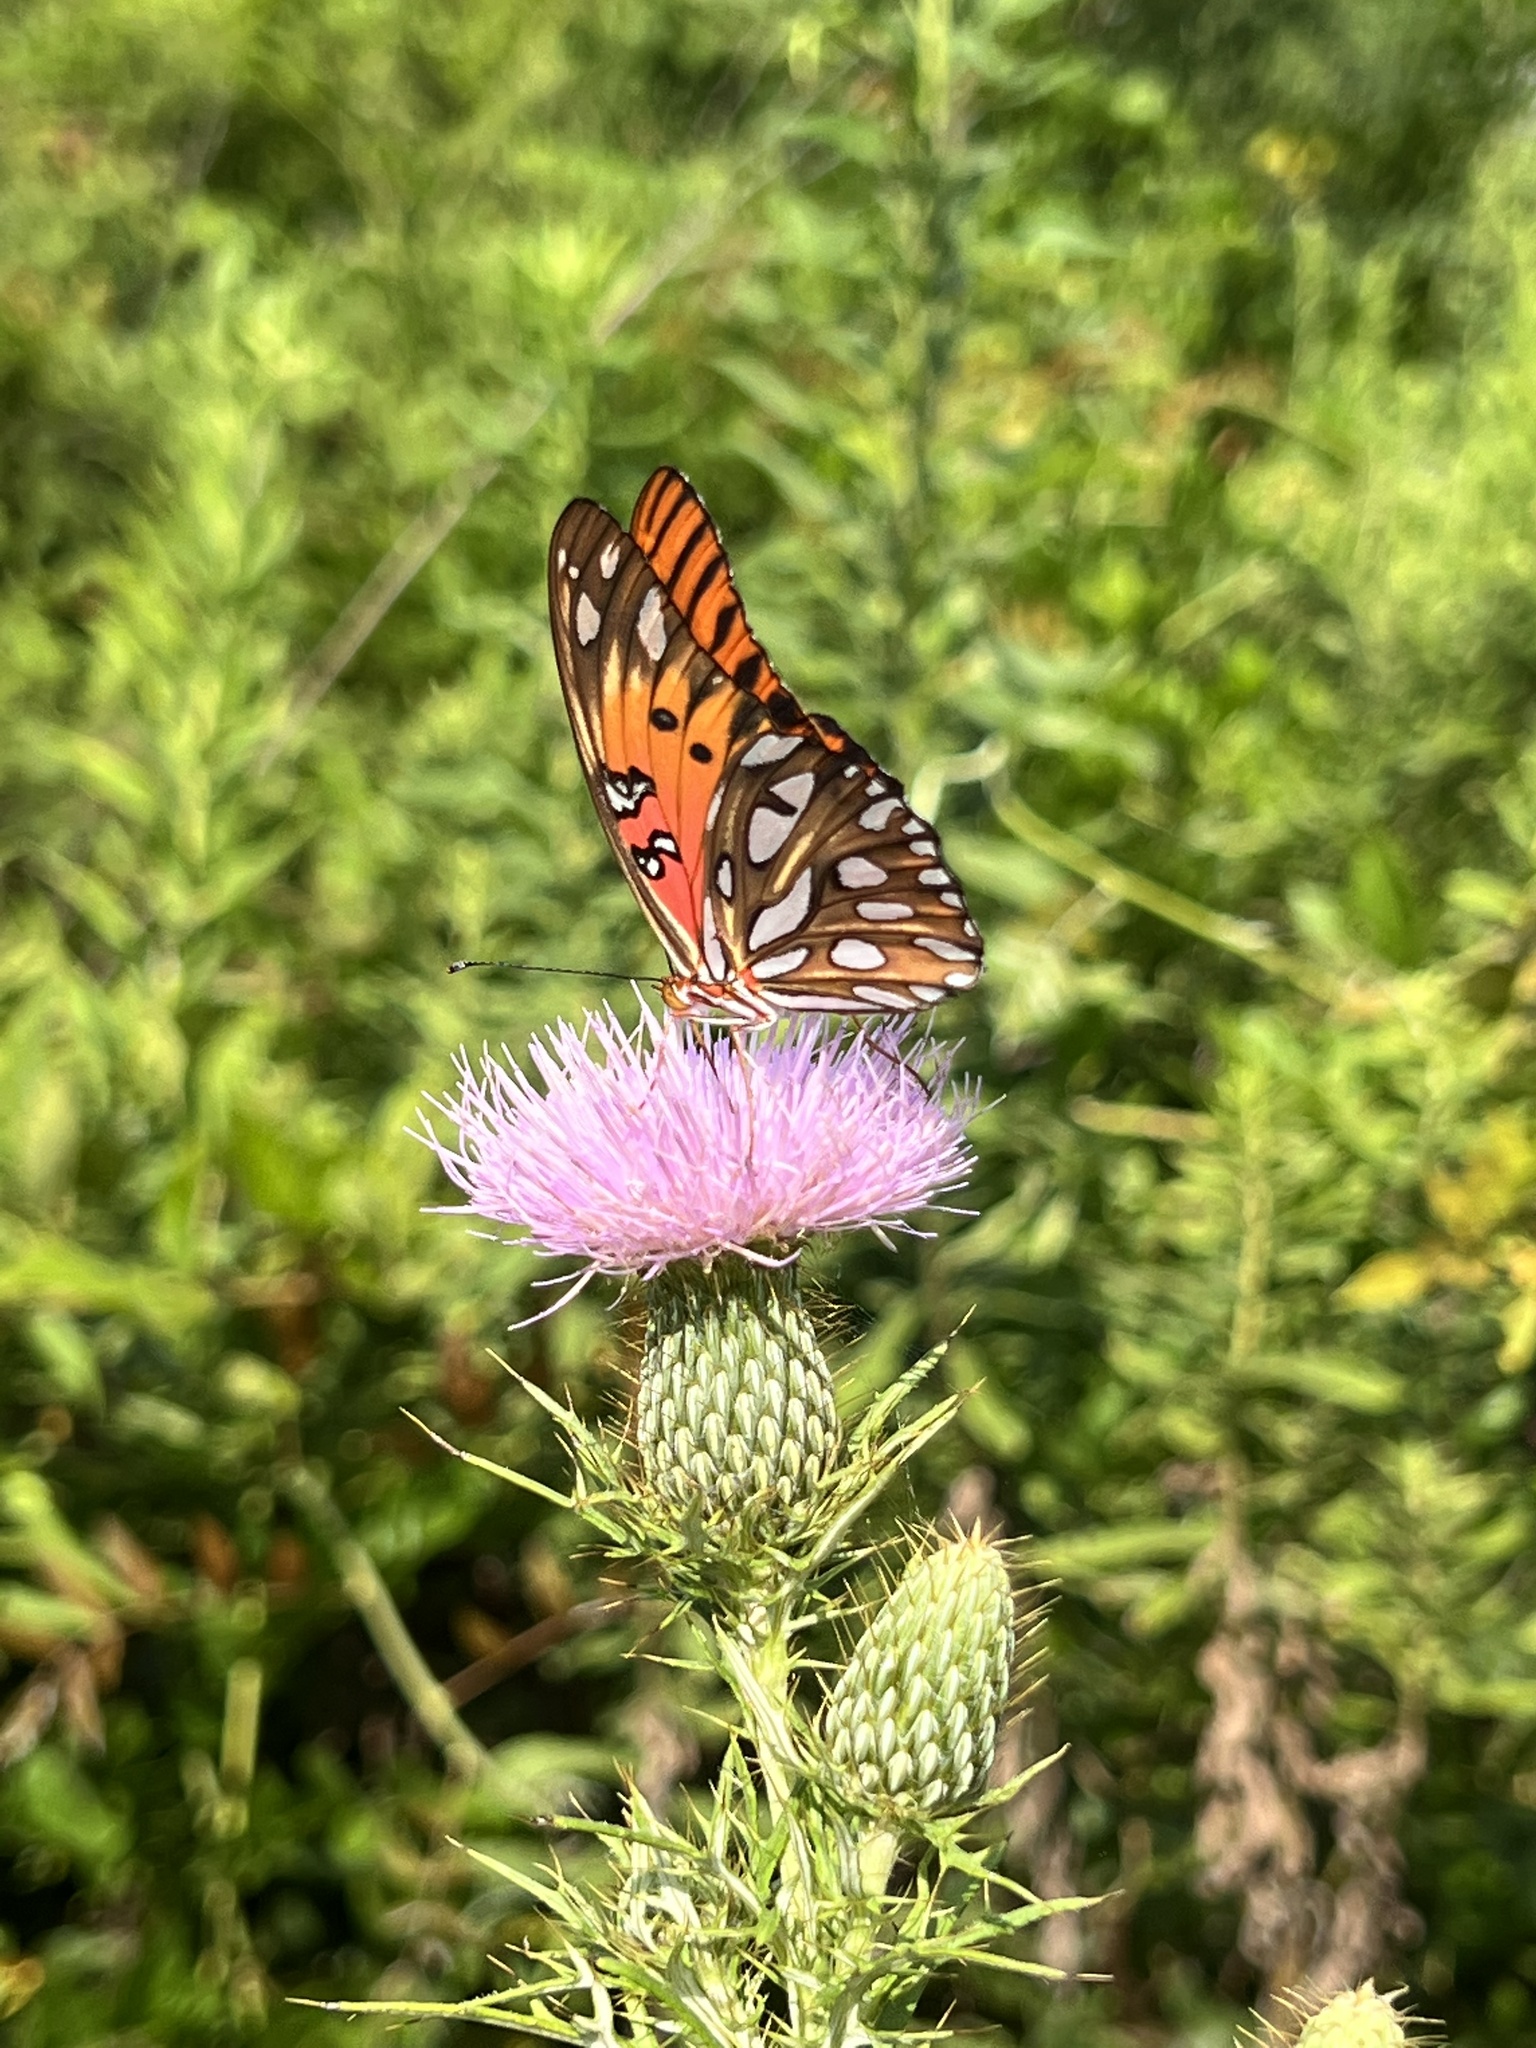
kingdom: Animalia
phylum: Arthropoda
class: Insecta
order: Lepidoptera
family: Nymphalidae
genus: Dione
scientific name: Dione vanillae
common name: Gulf fritillary
